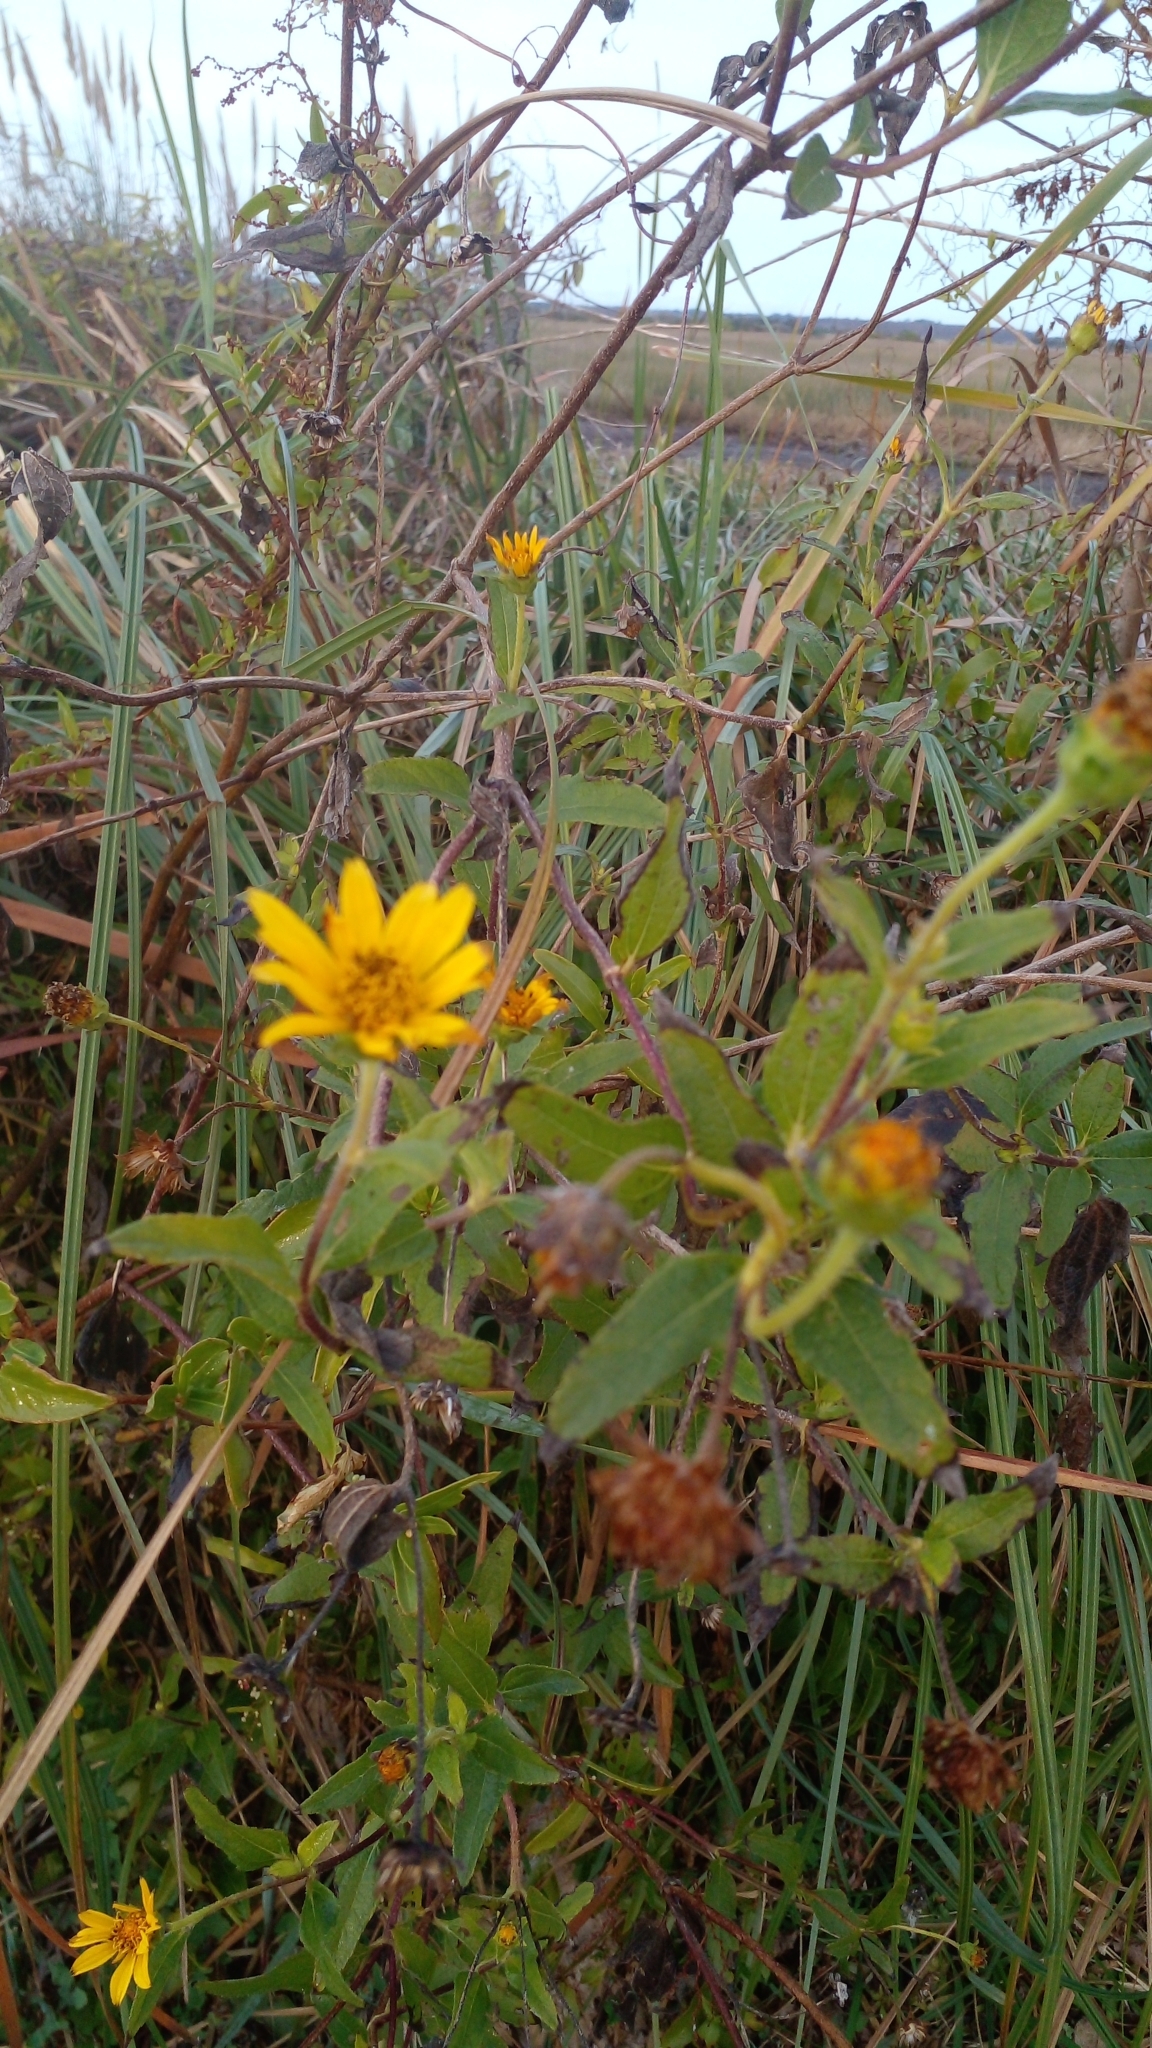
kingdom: Plantae
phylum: Tracheophyta
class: Magnoliopsida
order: Asterales
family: Asteraceae
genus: Bidens
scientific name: Bidens laevis
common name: Larger bur-marigold
